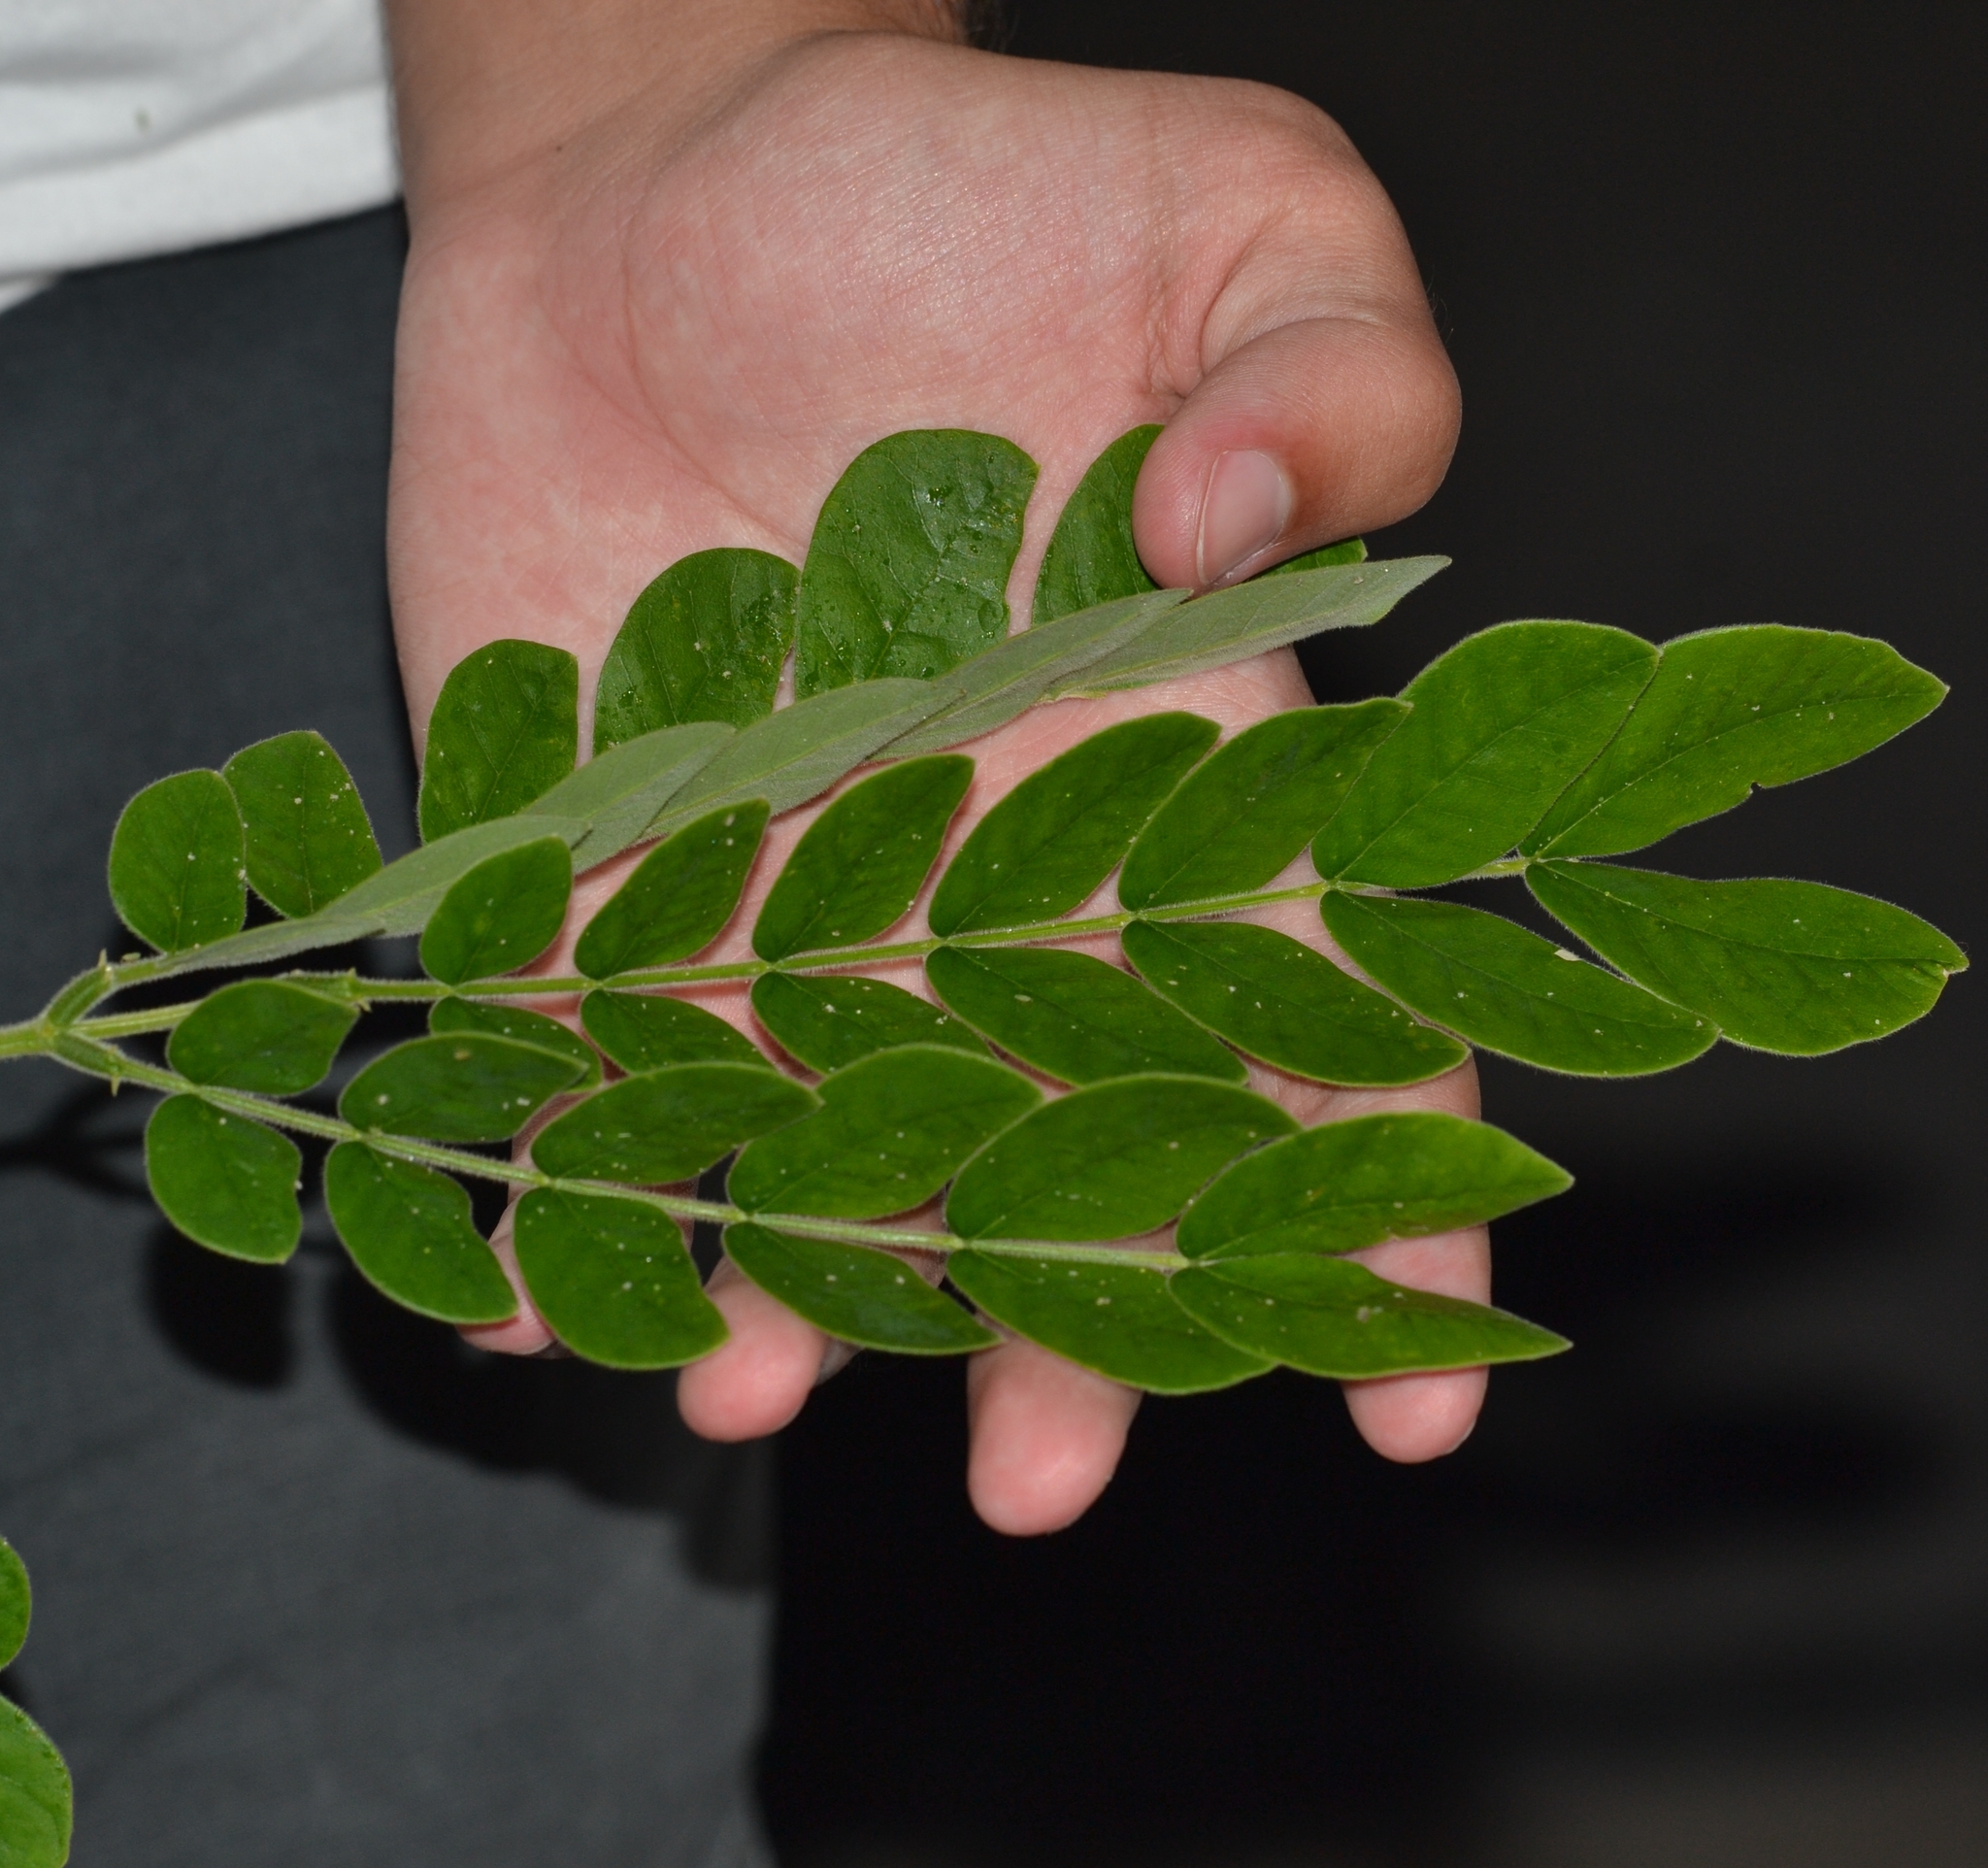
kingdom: Plantae
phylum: Tracheophyta
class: Magnoliopsida
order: Fabales
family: Fabaceae
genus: Samanea
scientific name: Samanea saman
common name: Raintree
